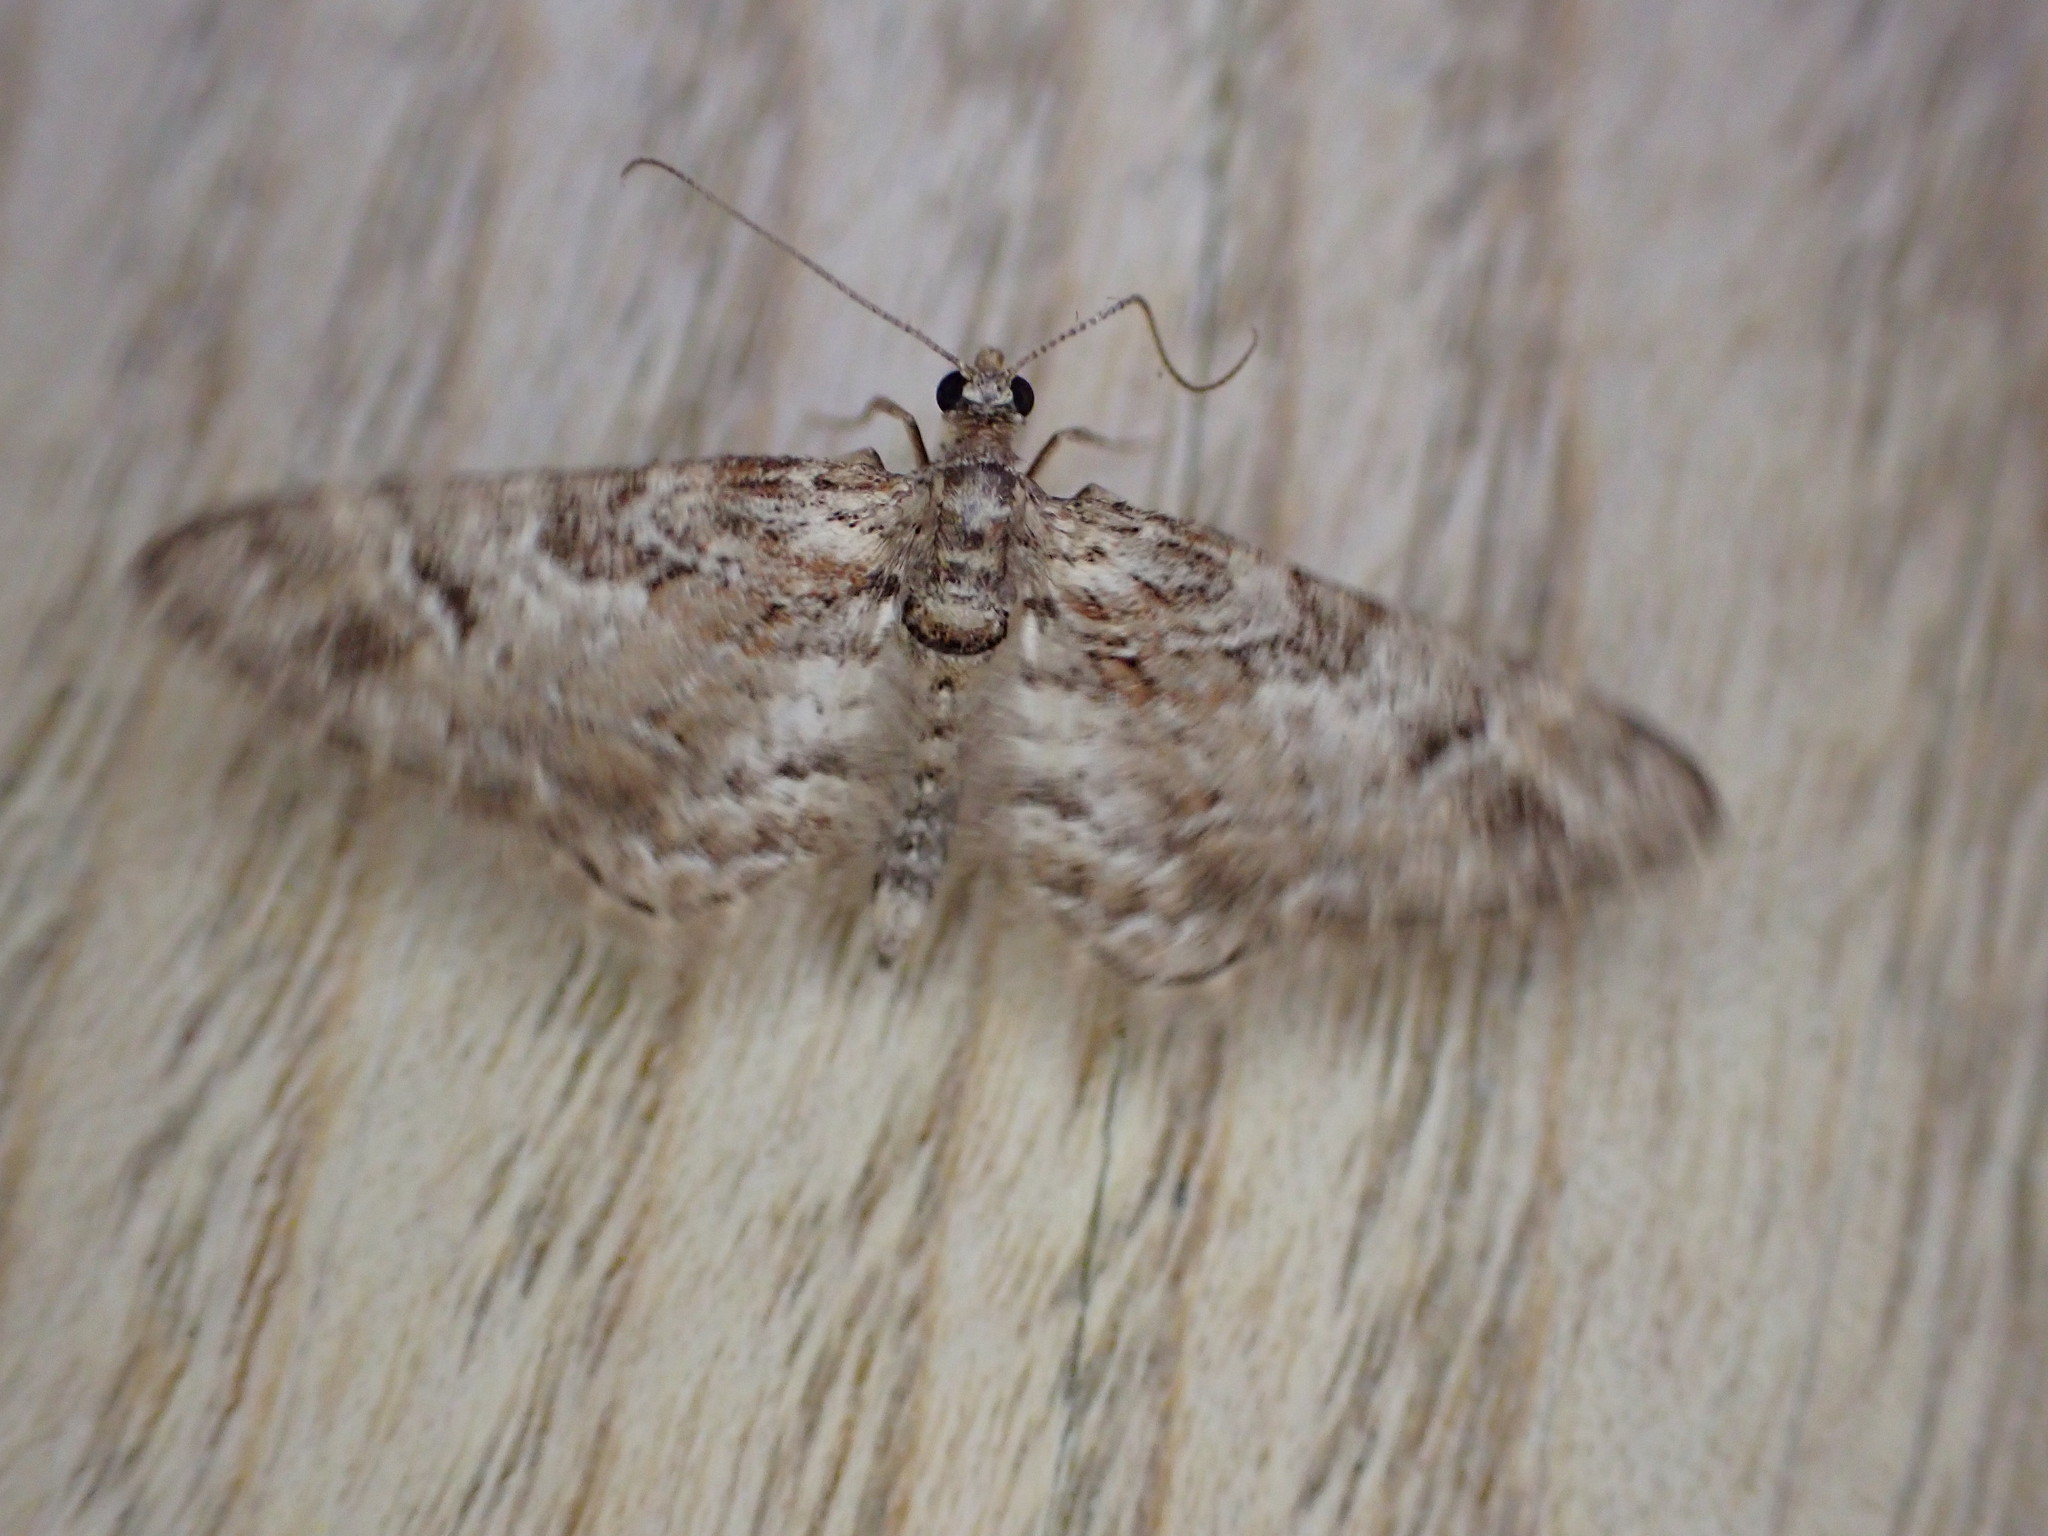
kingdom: Animalia
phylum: Arthropoda
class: Insecta
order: Lepidoptera
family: Geometridae
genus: Gymnoscelis
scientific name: Gymnoscelis rufifasciata
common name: Double-striped pug
